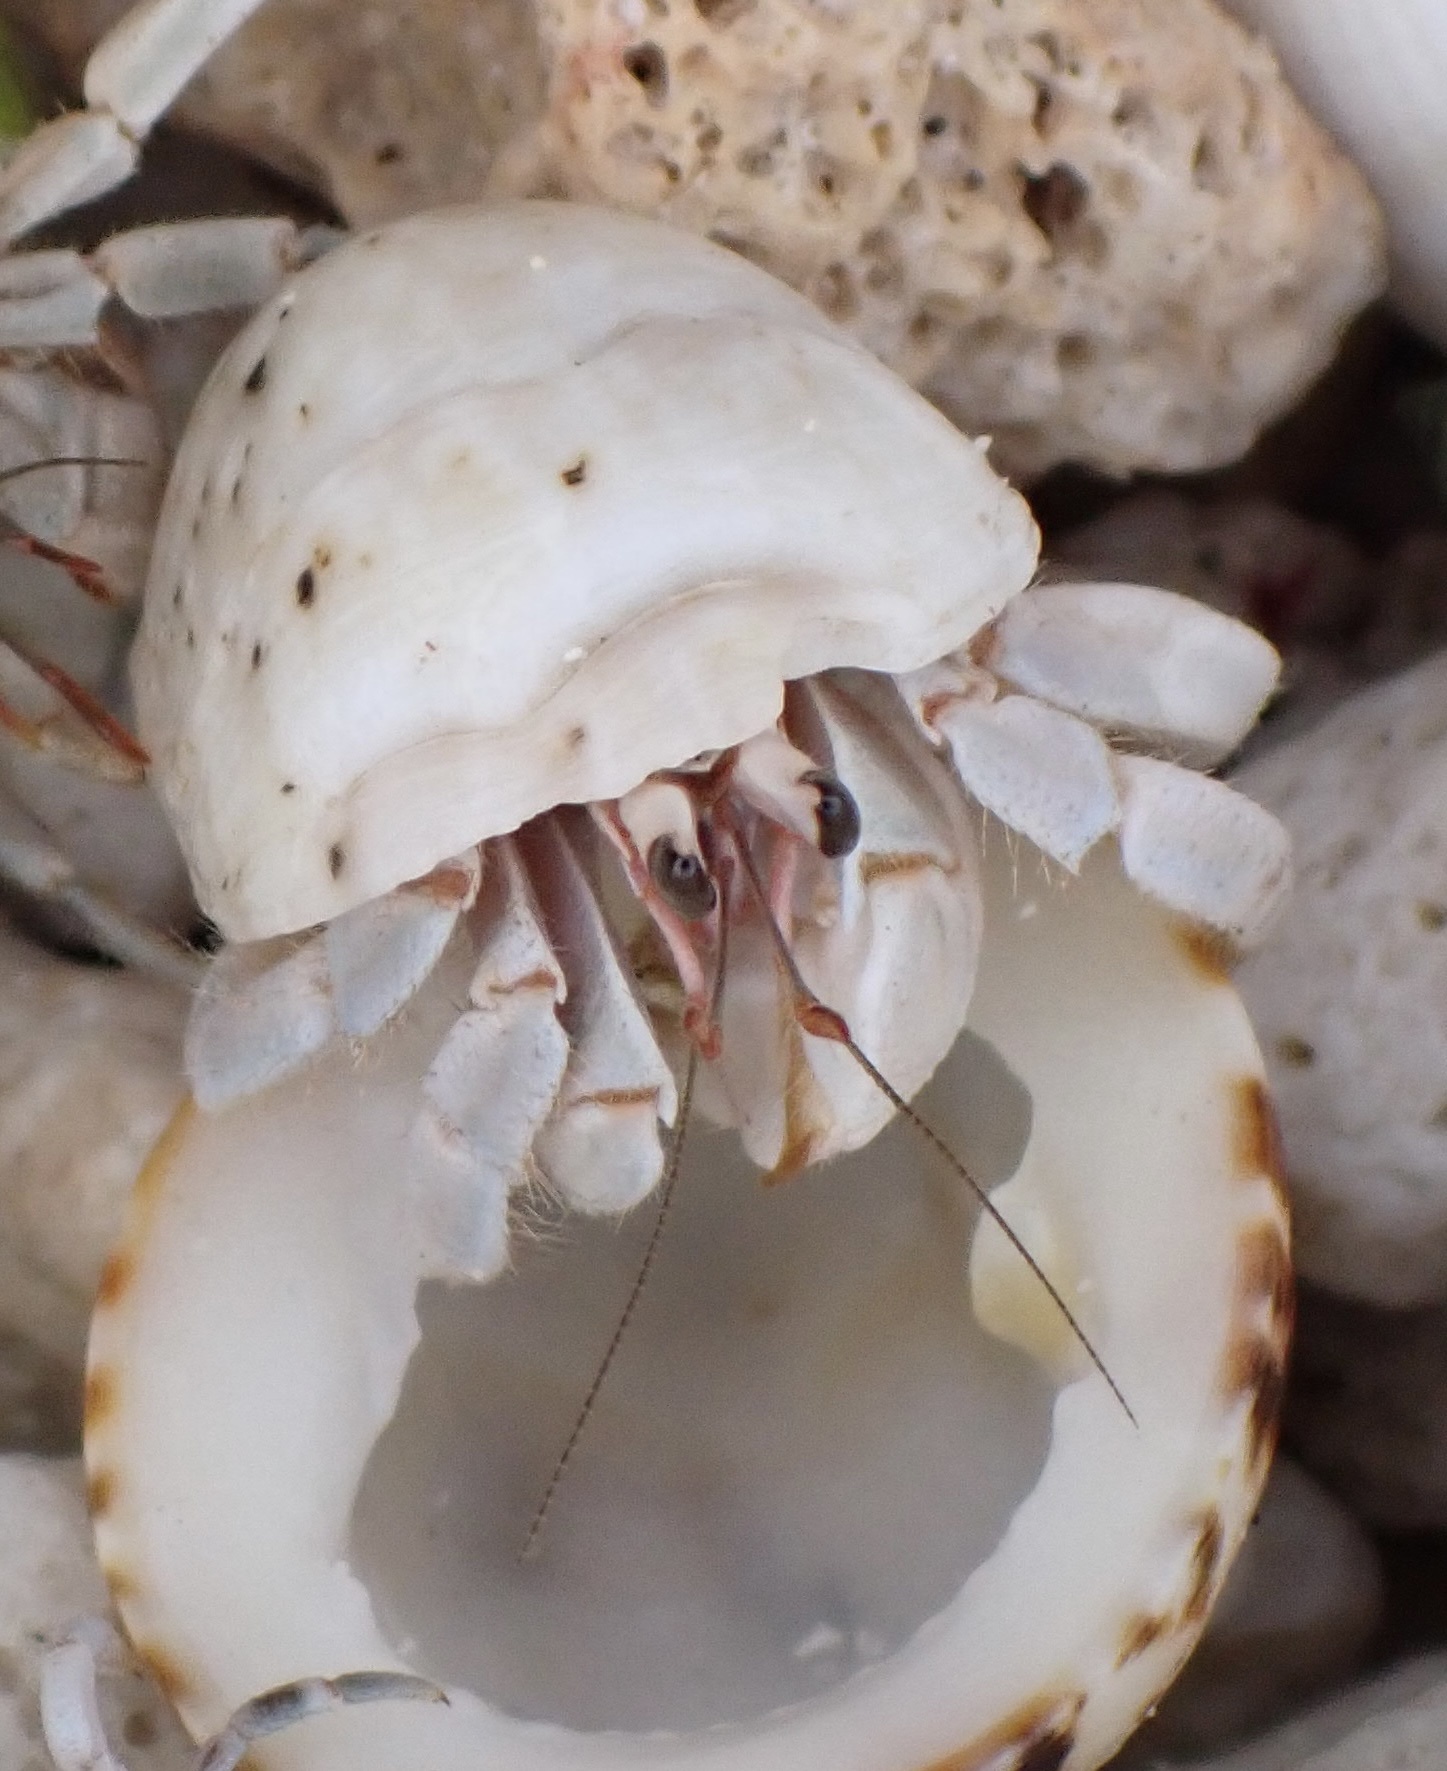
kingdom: Animalia
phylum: Arthropoda
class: Malacostraca
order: Decapoda
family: Coenobitidae
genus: Coenobita
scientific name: Coenobita rugosus
